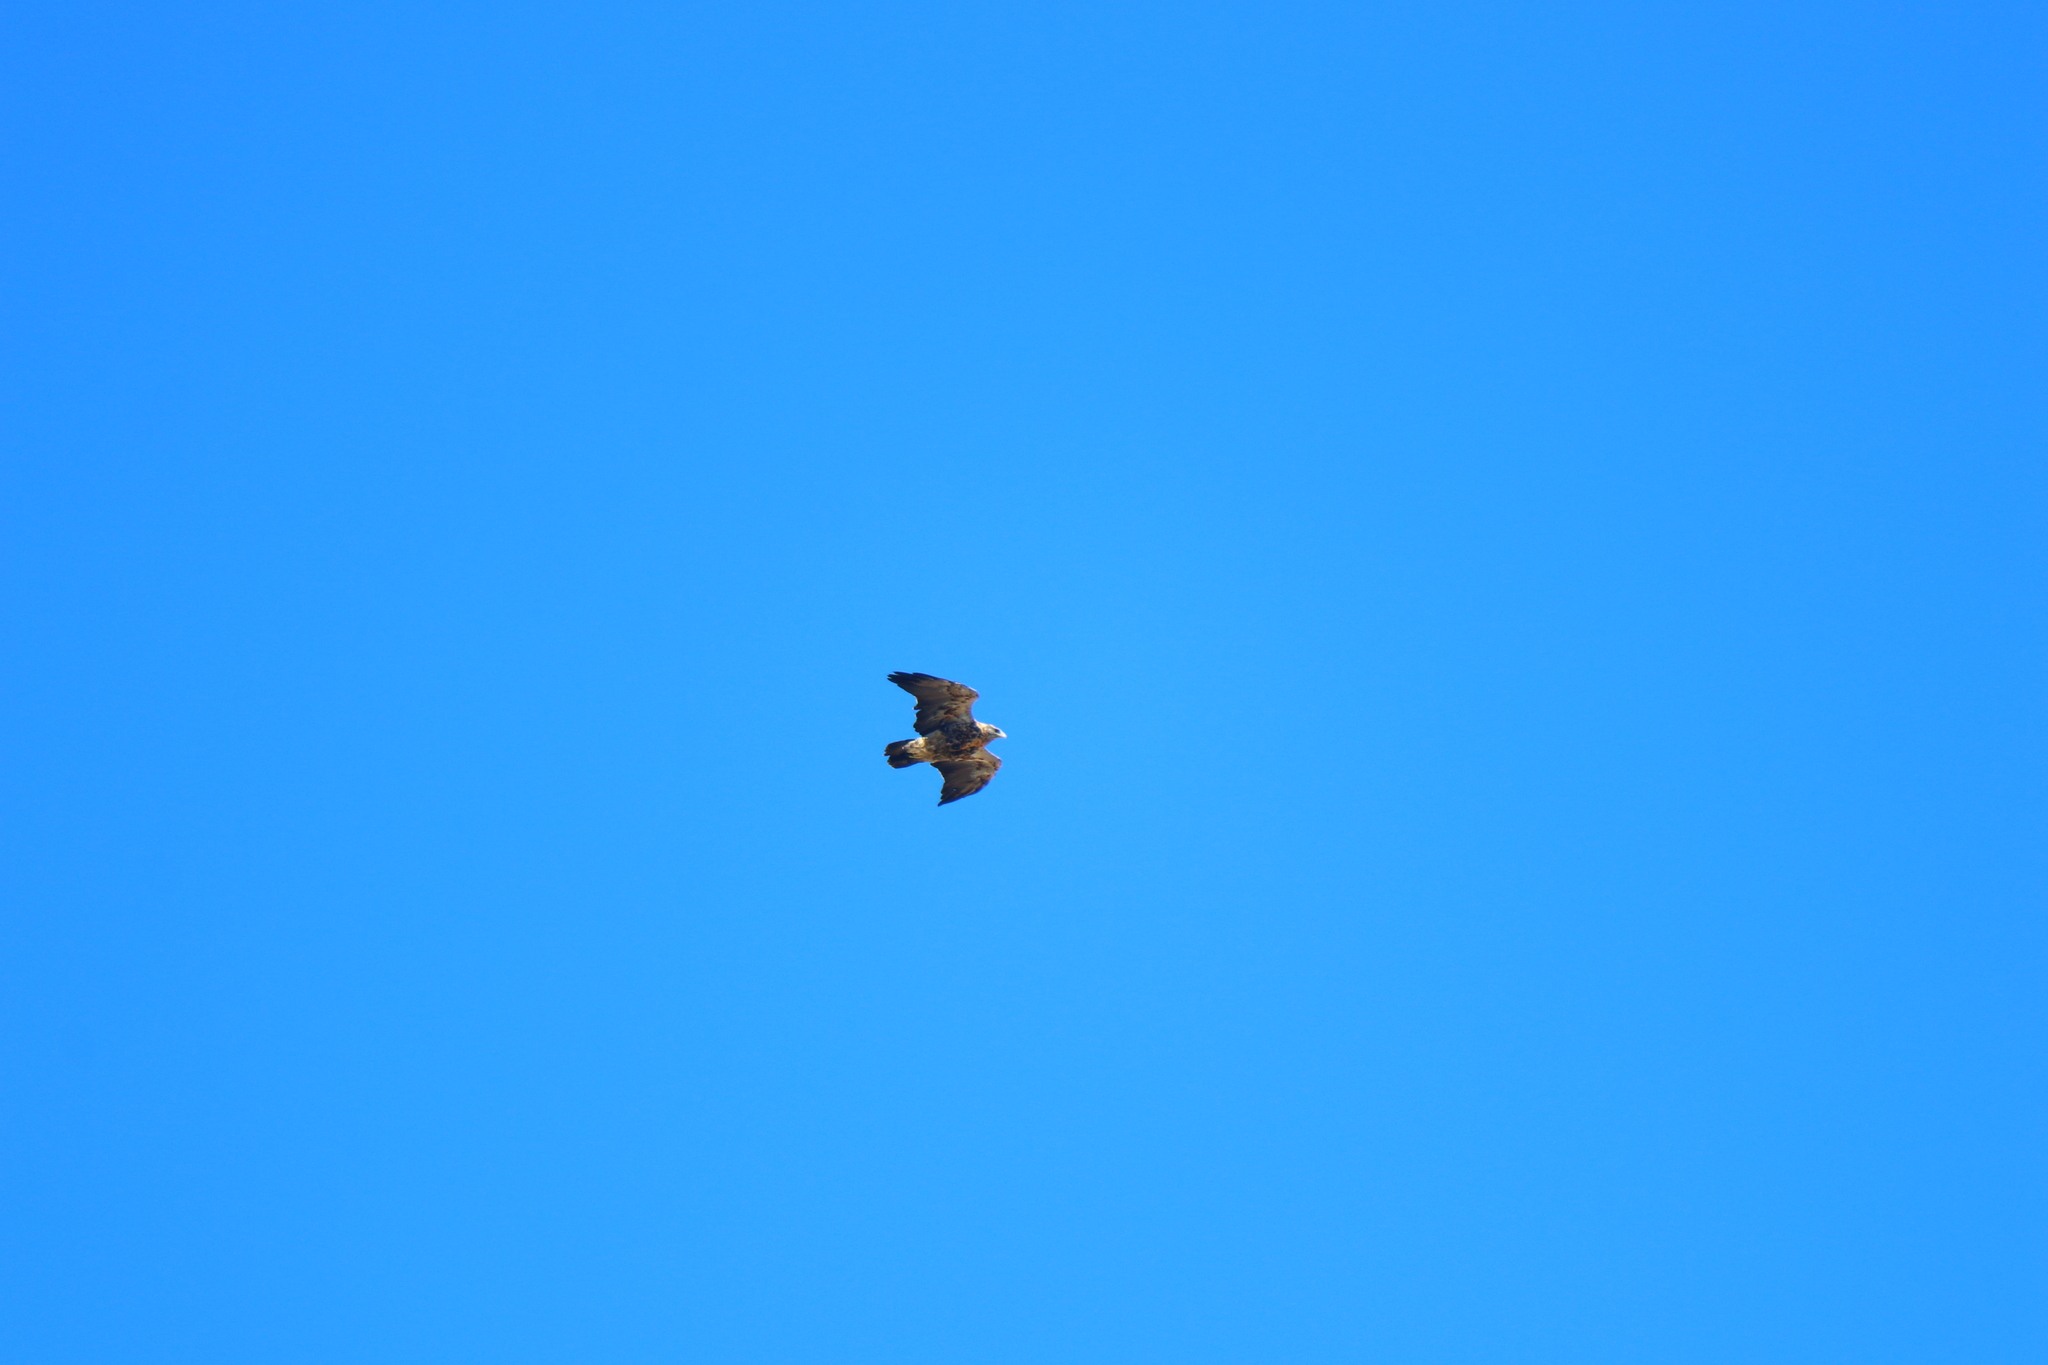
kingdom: Animalia
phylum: Chordata
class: Aves
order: Accipitriformes
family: Accipitridae
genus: Geranoaetus
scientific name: Geranoaetus melanoleucus
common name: Black-chested buzzard-eagle
